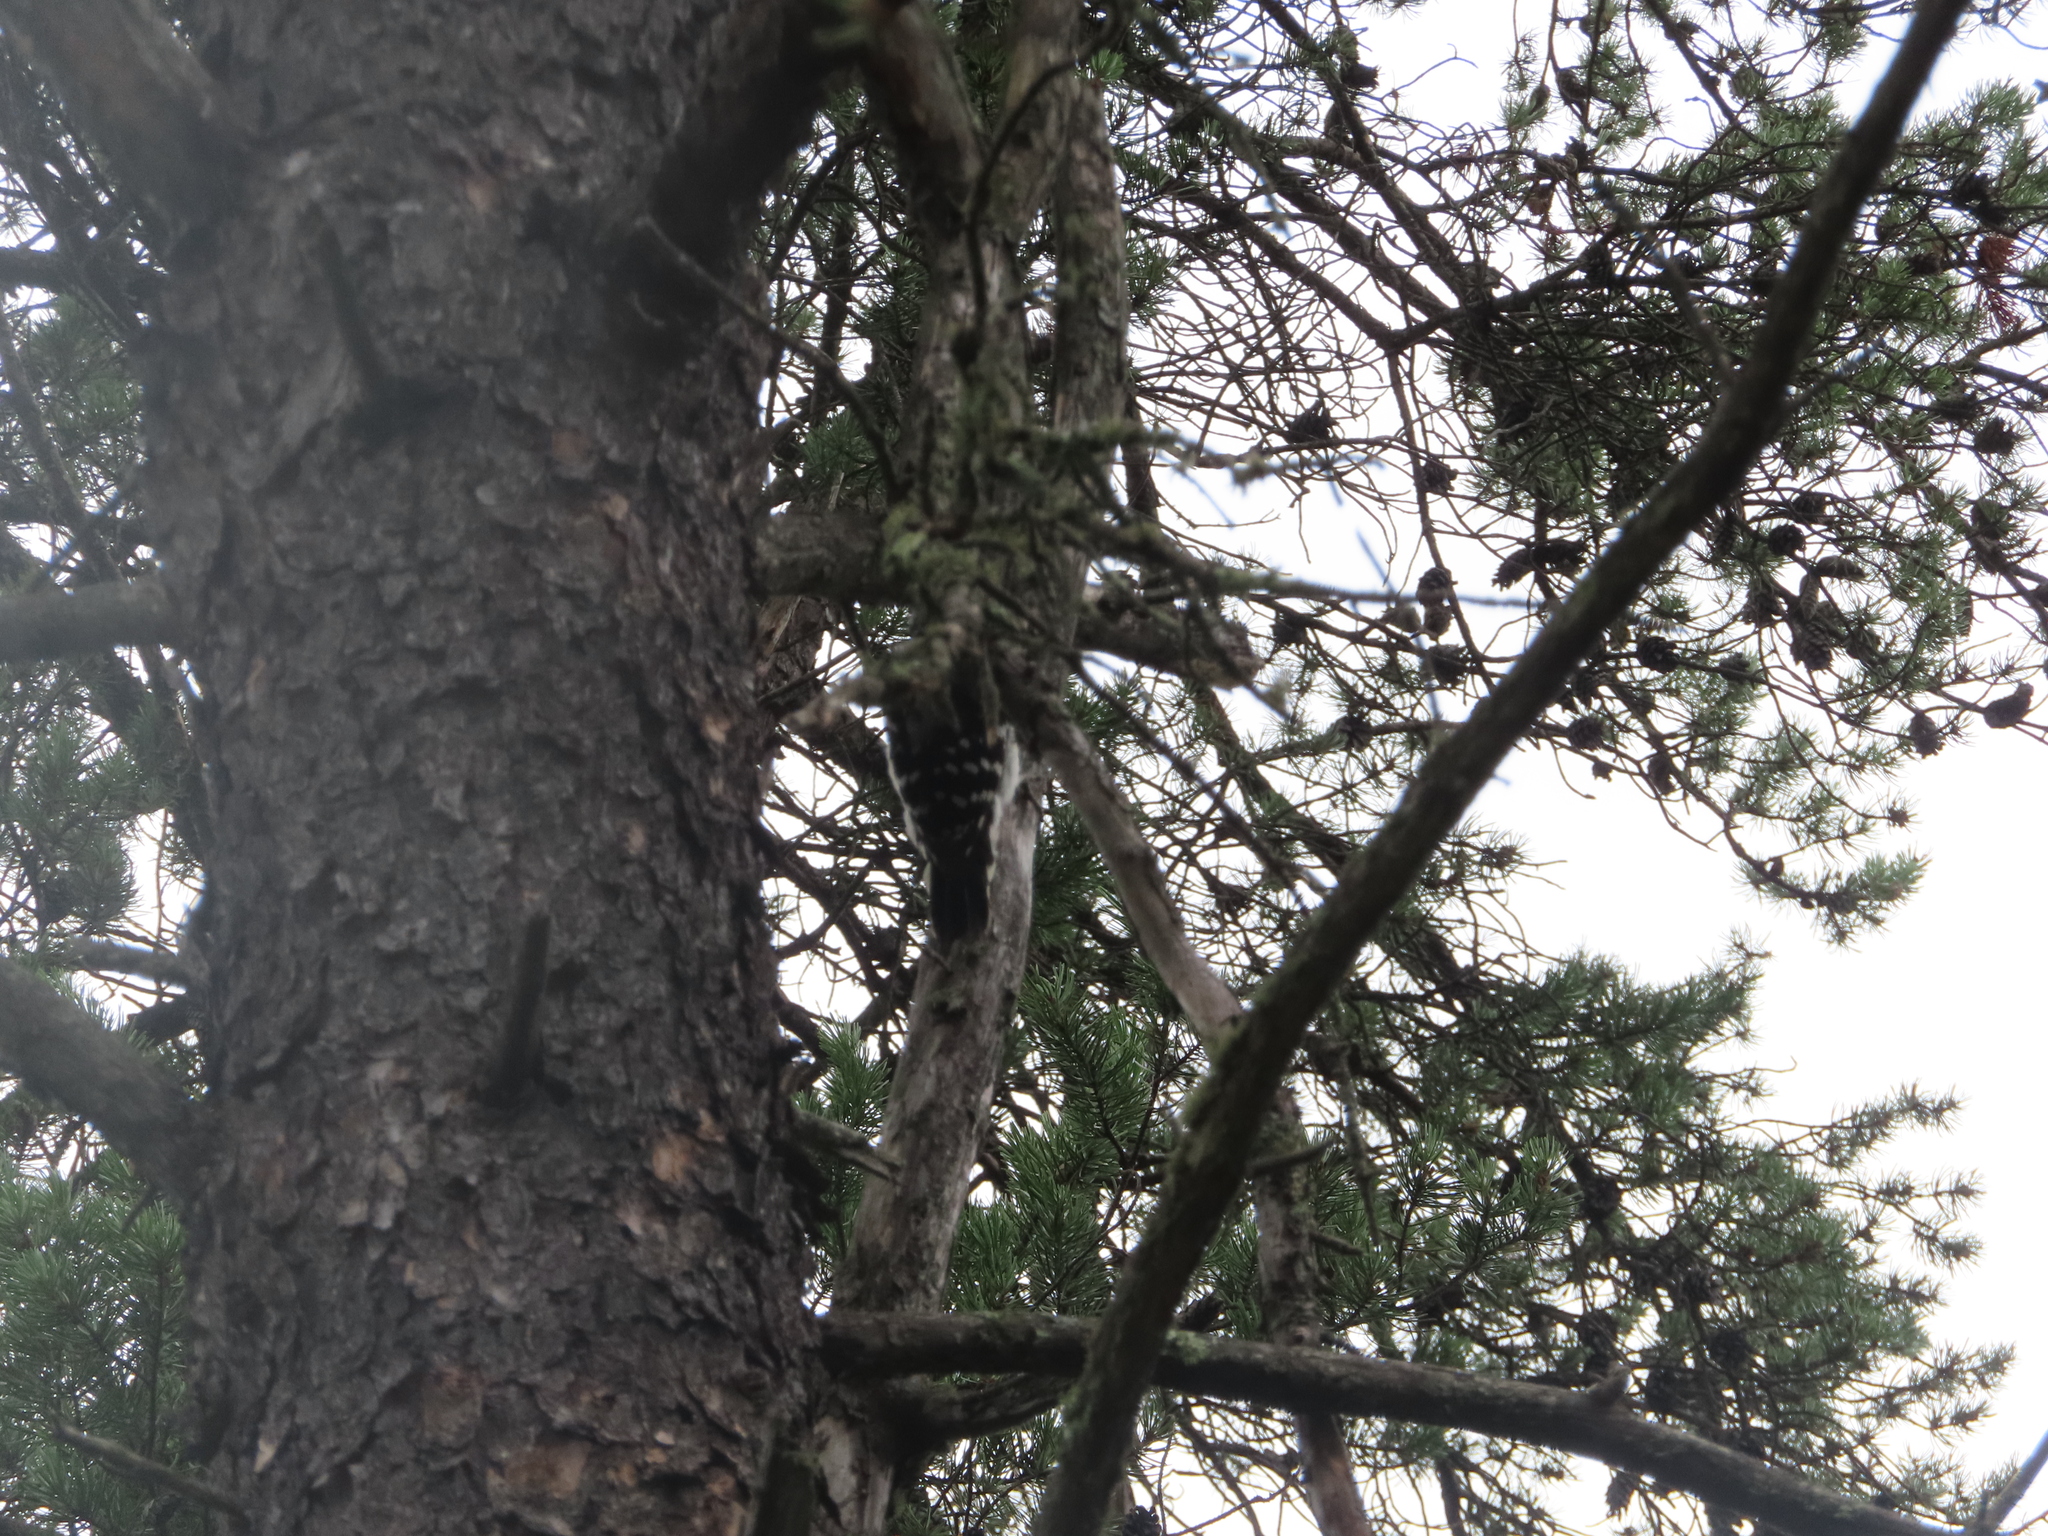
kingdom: Animalia
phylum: Chordata
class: Aves
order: Piciformes
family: Picidae
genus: Leuconotopicus
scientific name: Leuconotopicus villosus
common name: Hairy woodpecker
